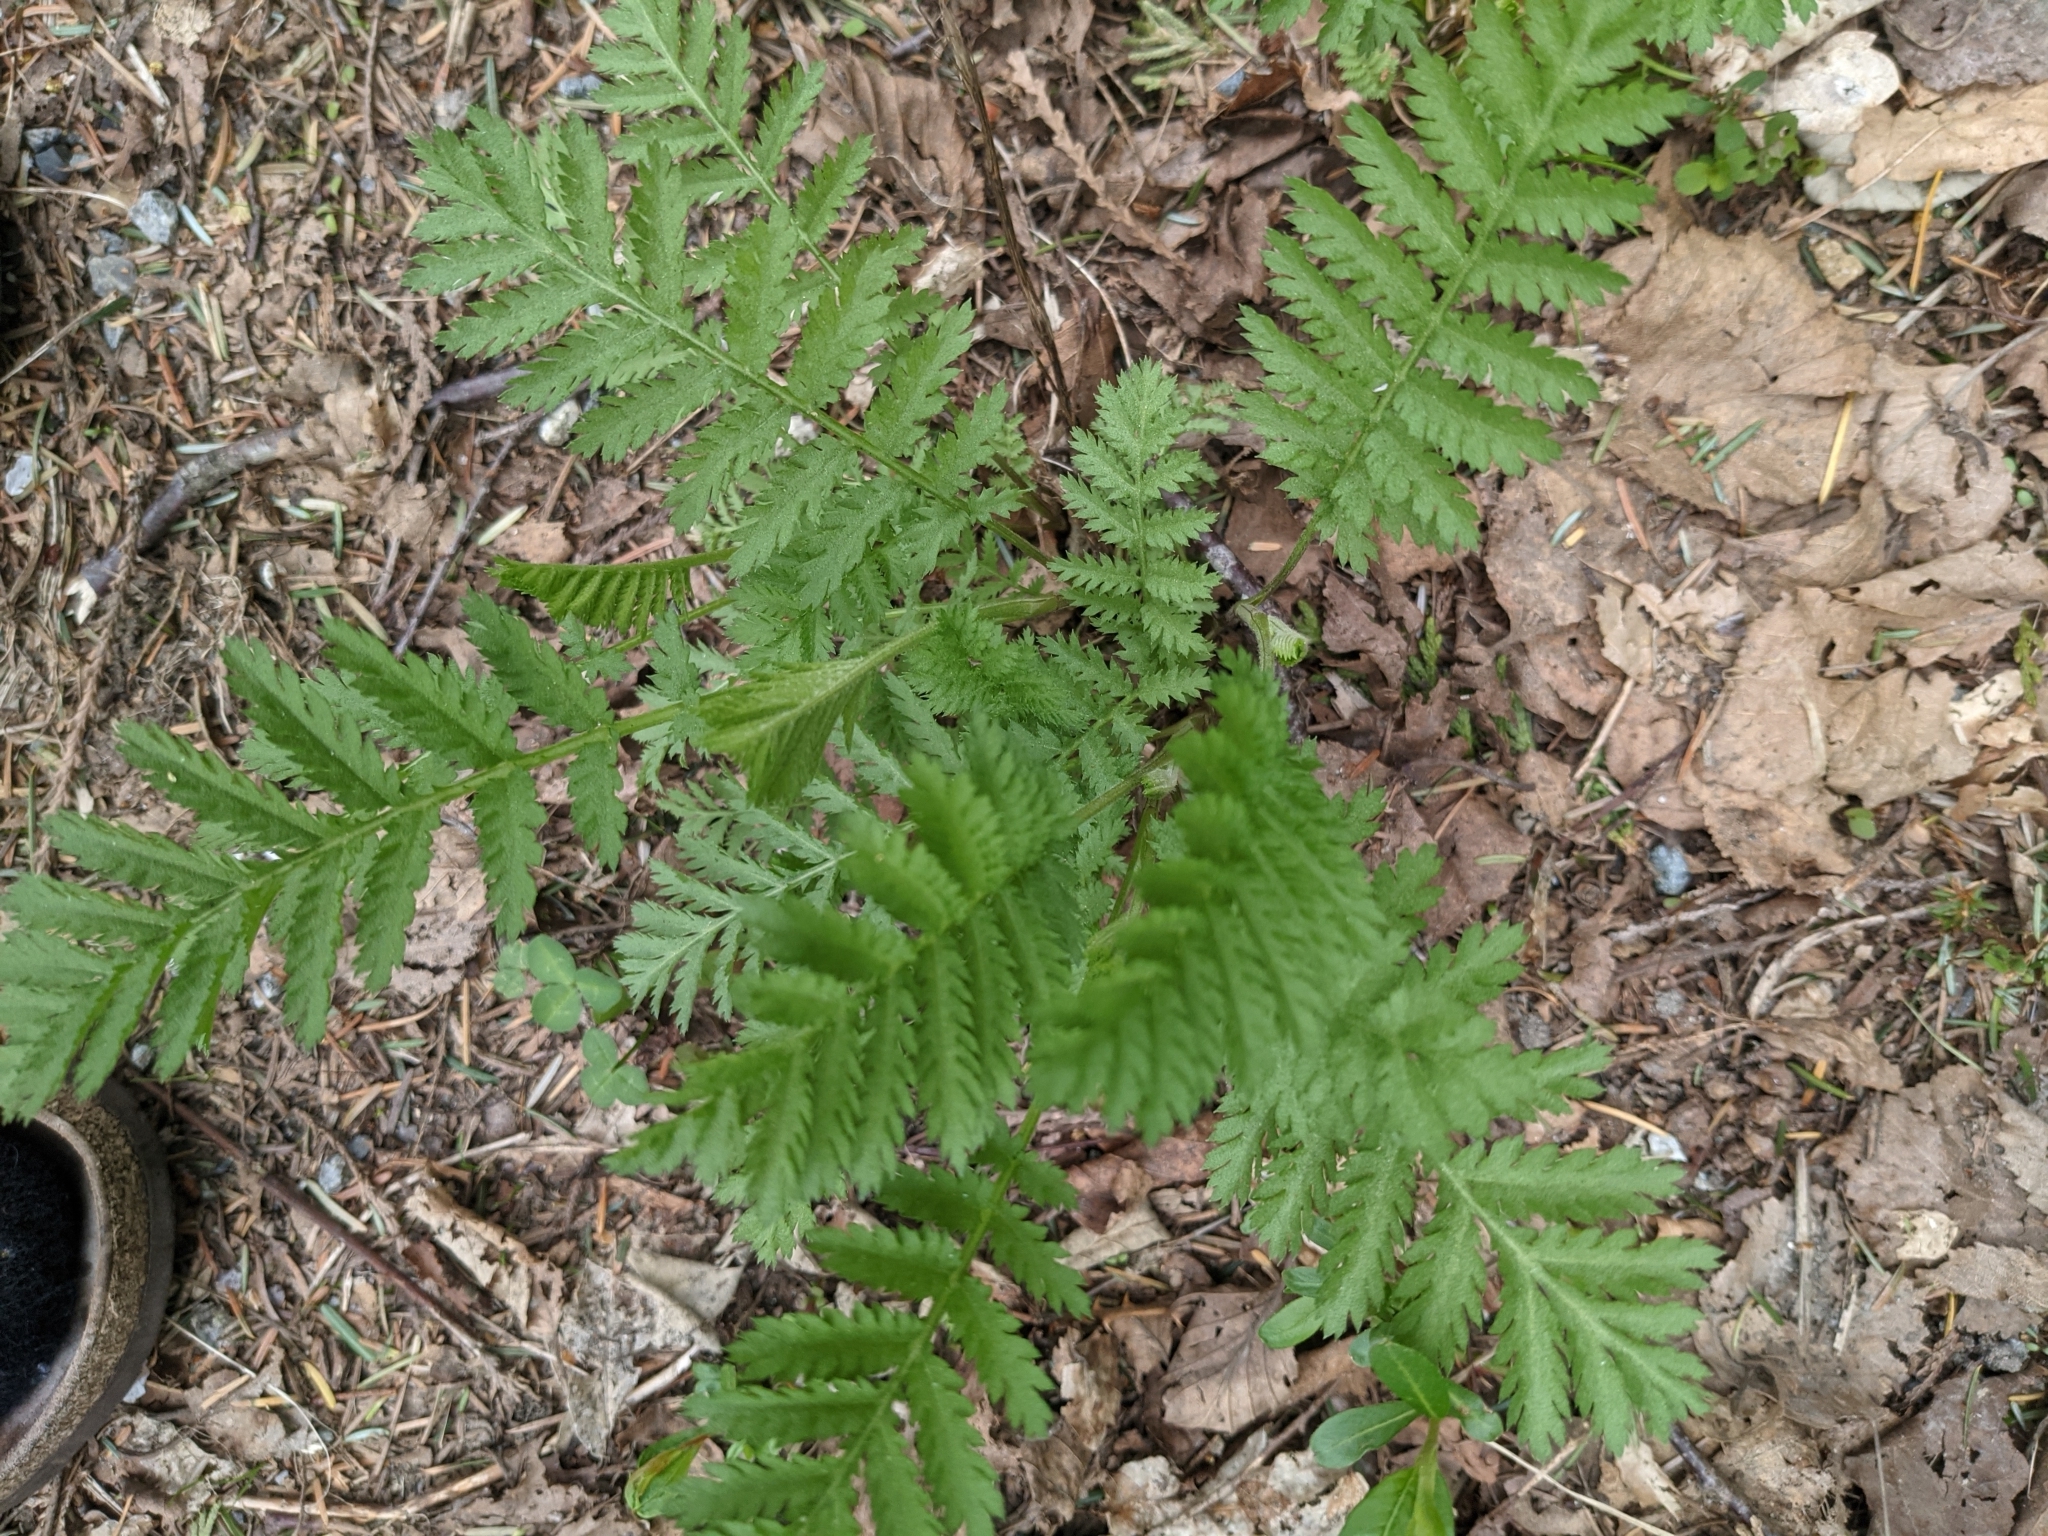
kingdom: Plantae
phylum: Tracheophyta
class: Magnoliopsida
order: Asterales
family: Asteraceae
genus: Tanacetum
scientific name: Tanacetum vulgare
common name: Common tansy
